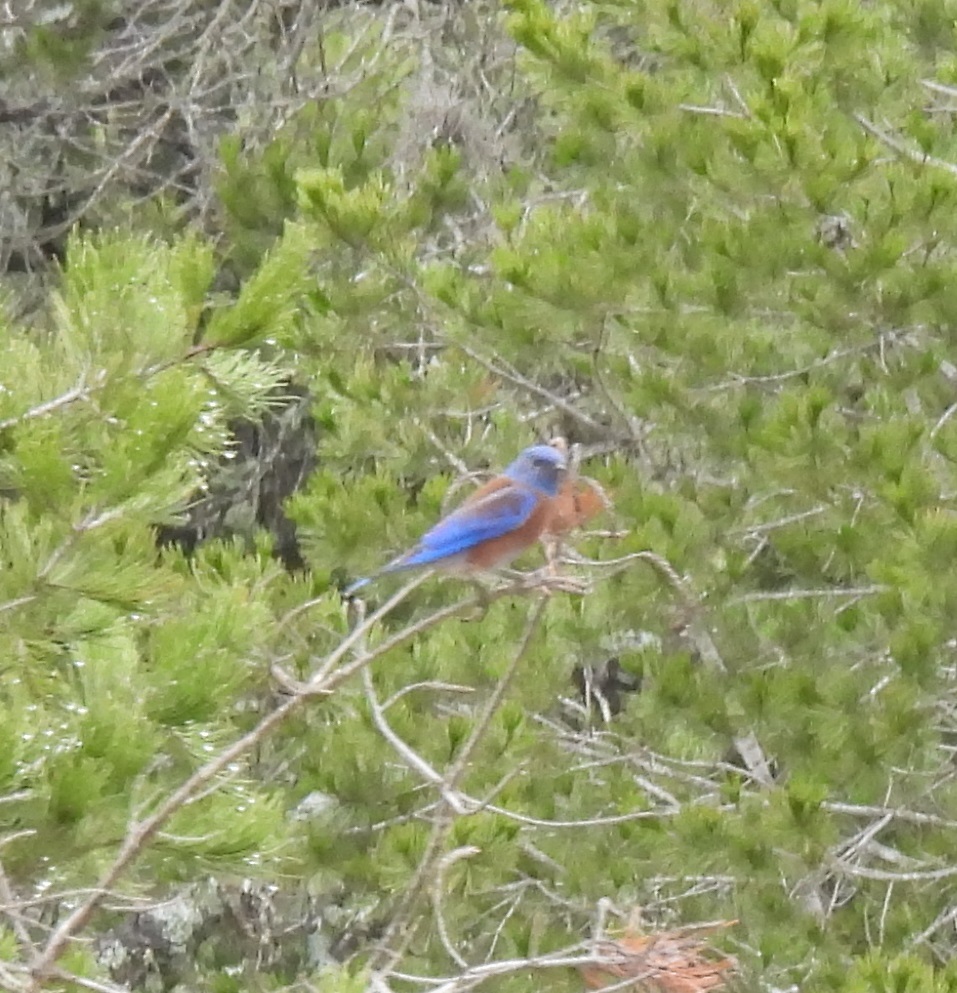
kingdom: Animalia
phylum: Chordata
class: Aves
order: Passeriformes
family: Turdidae
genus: Sialia
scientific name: Sialia mexicana
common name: Western bluebird
